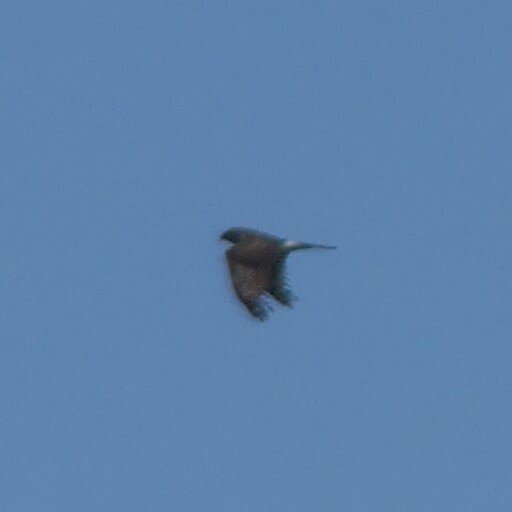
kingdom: Animalia
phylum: Chordata
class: Aves
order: Accipitriformes
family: Accipitridae
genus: Circus
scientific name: Circus cyaneus
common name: Hen harrier
